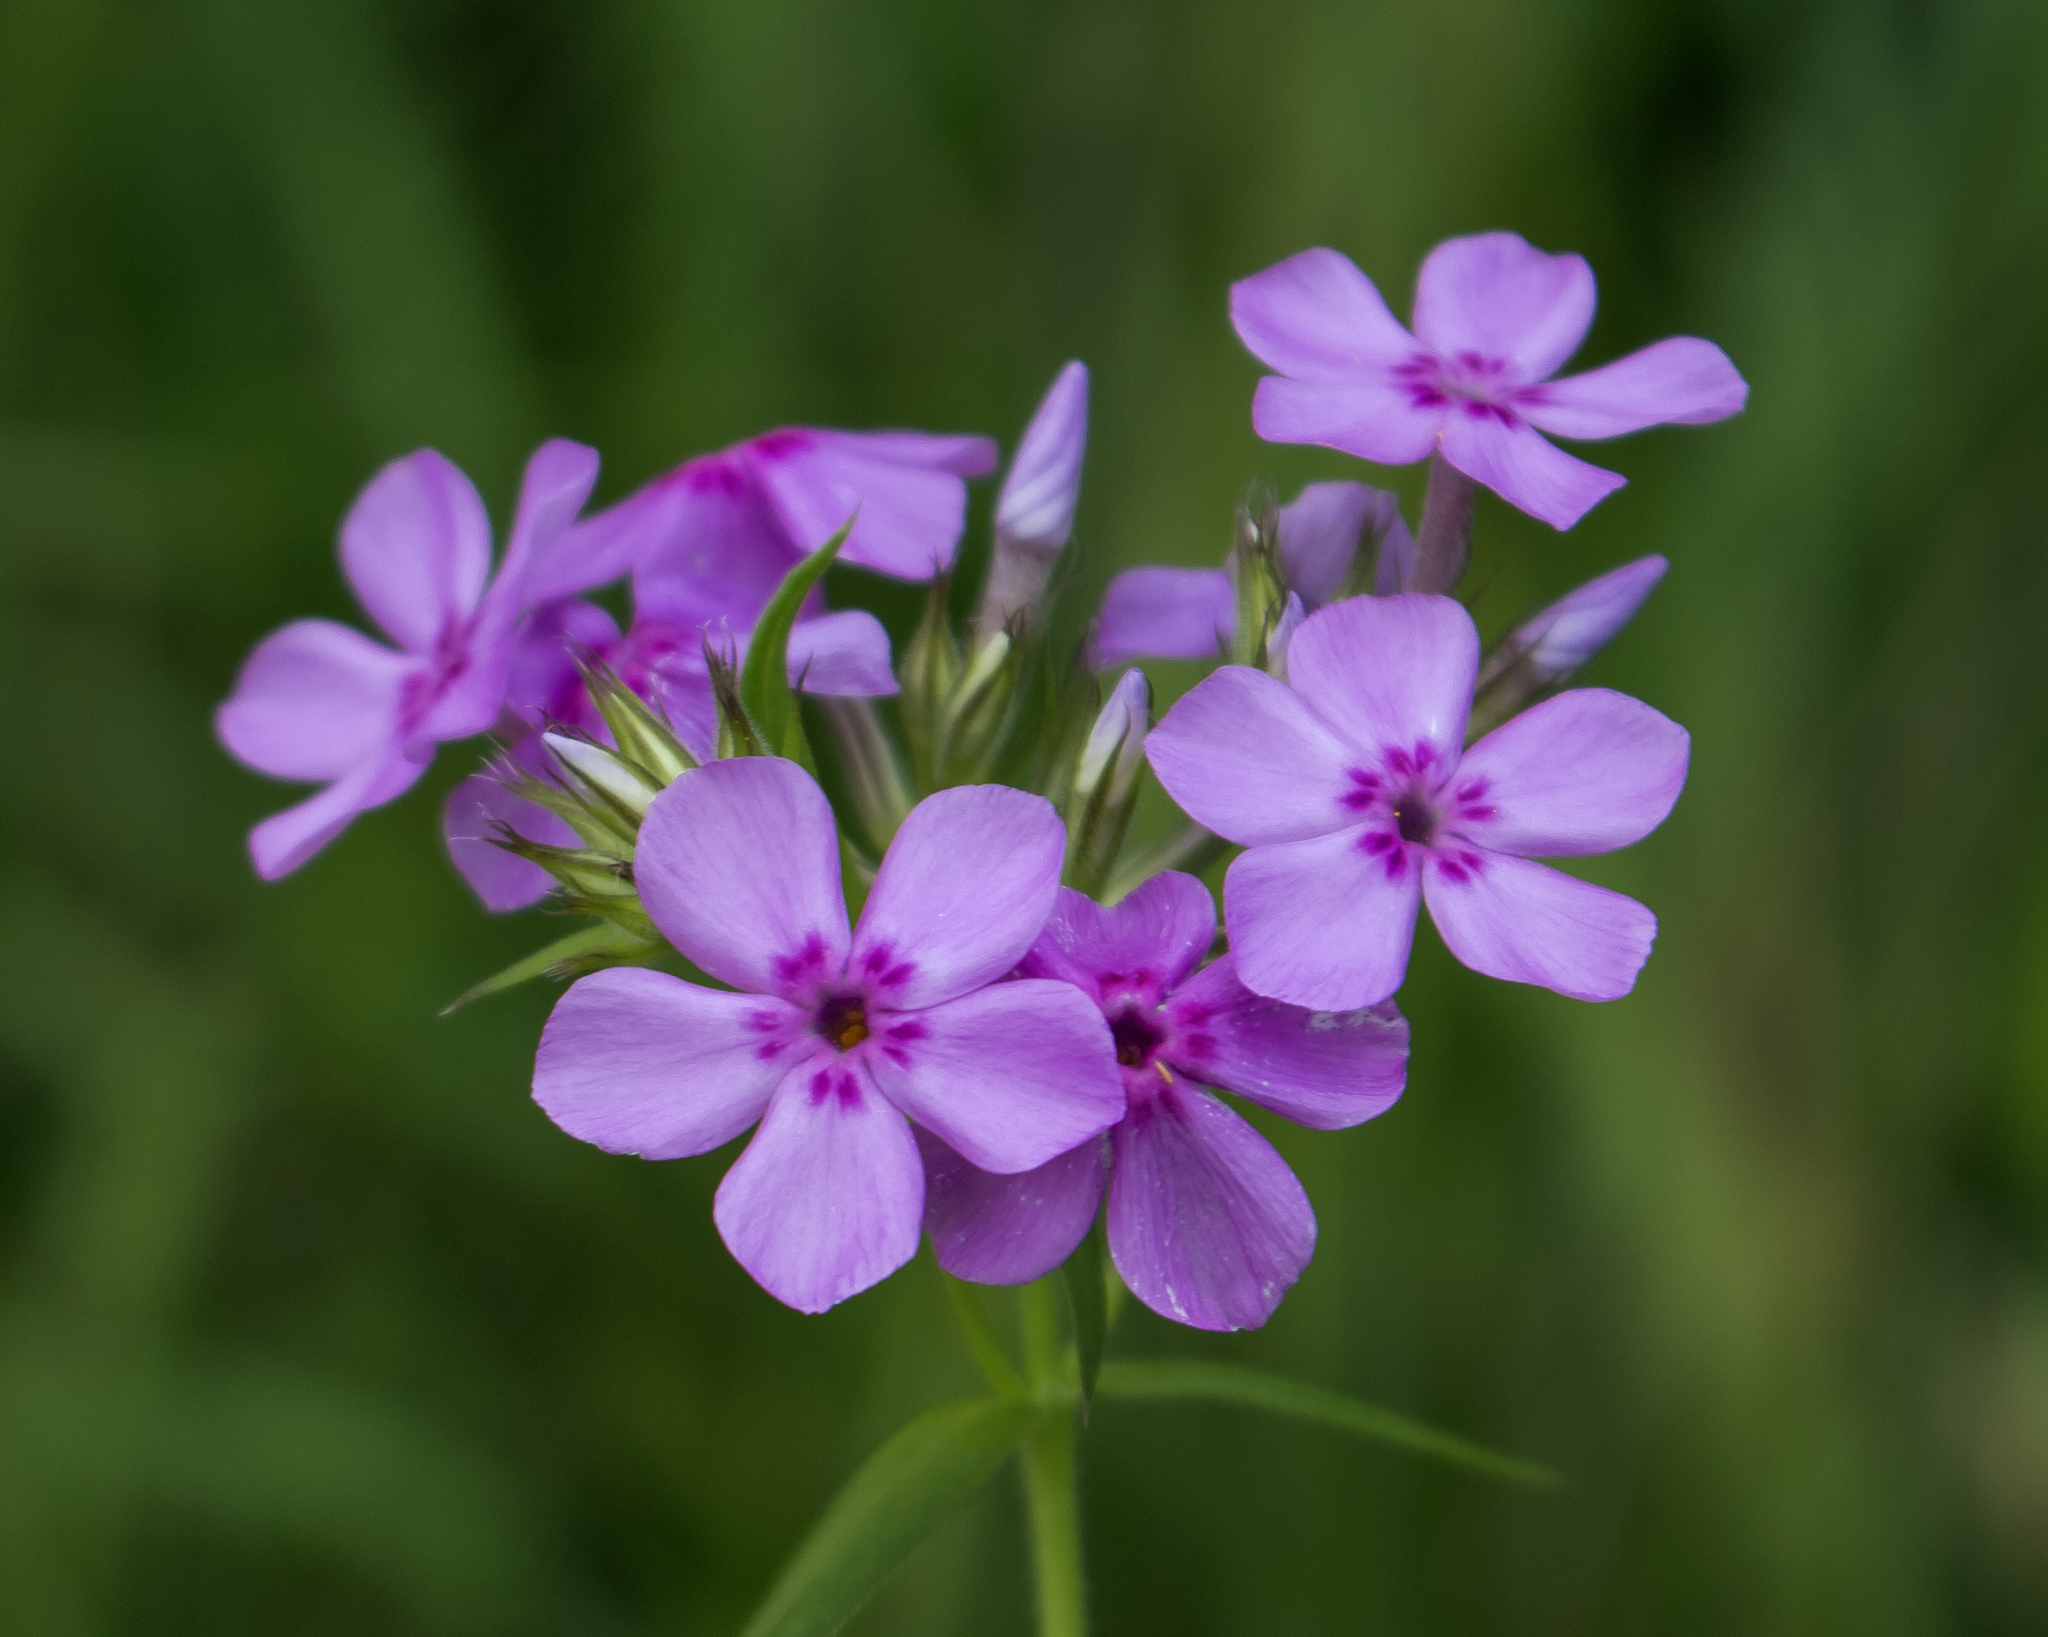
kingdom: Plantae
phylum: Tracheophyta
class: Magnoliopsida
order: Ericales
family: Polemoniaceae
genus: Phlox
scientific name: Phlox pilosa
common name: Prairie phlox
